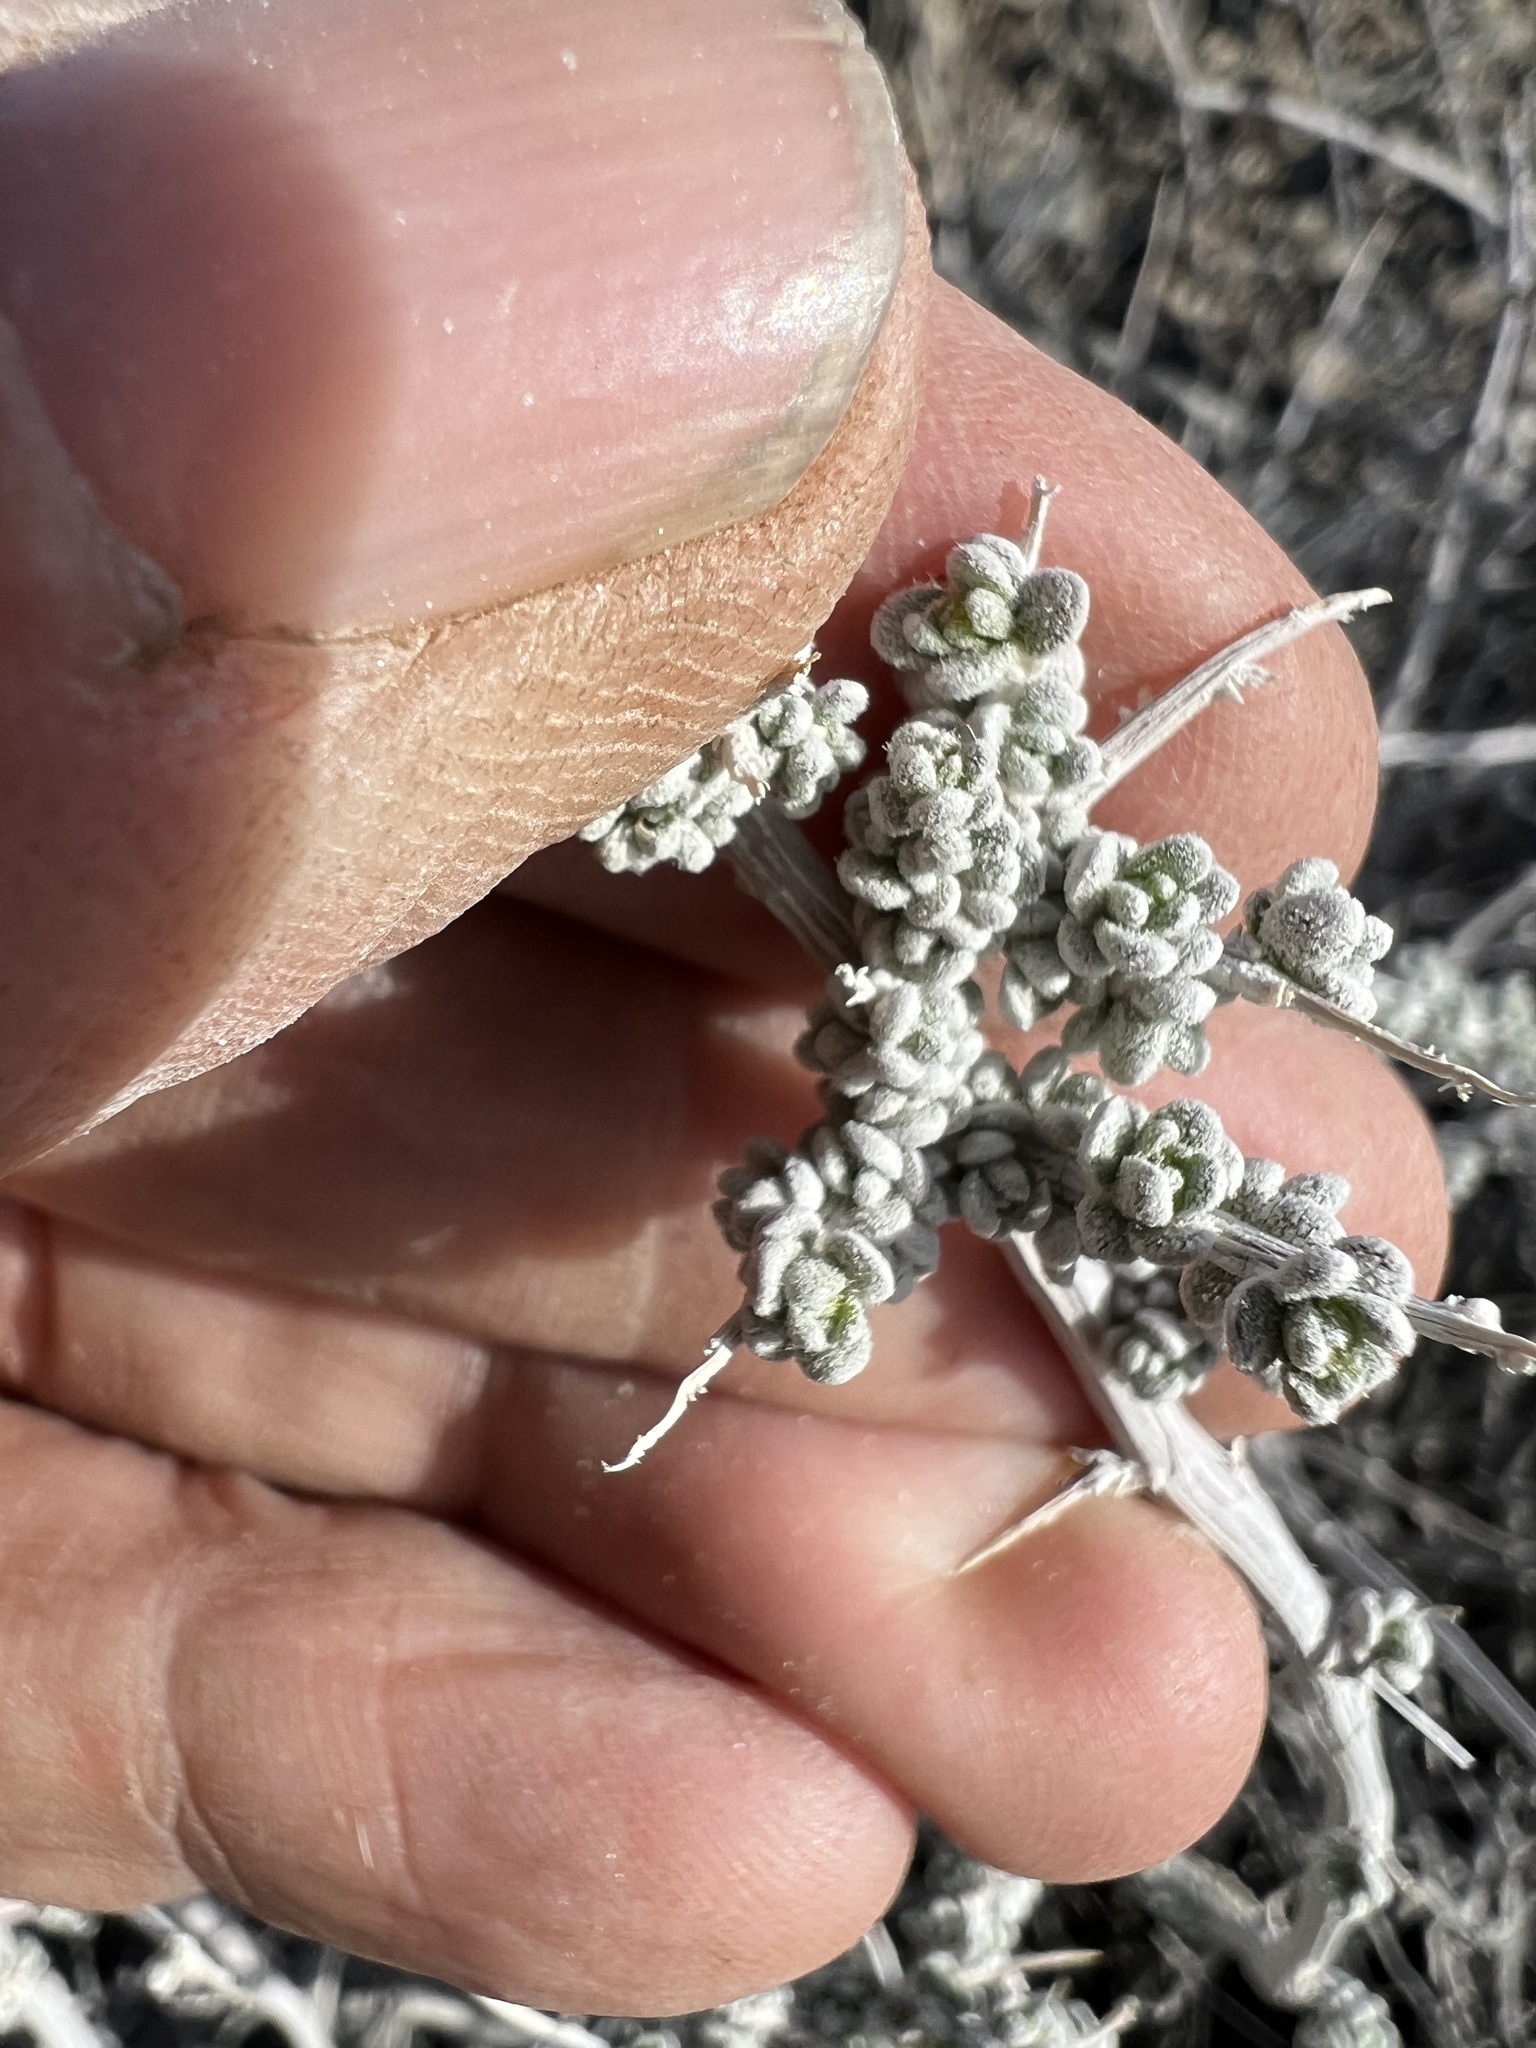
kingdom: Plantae
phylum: Tracheophyta
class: Magnoliopsida
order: Caryophyllales
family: Amaranthaceae
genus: Grayia
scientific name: Grayia spinosa
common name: Spiny hopsage
